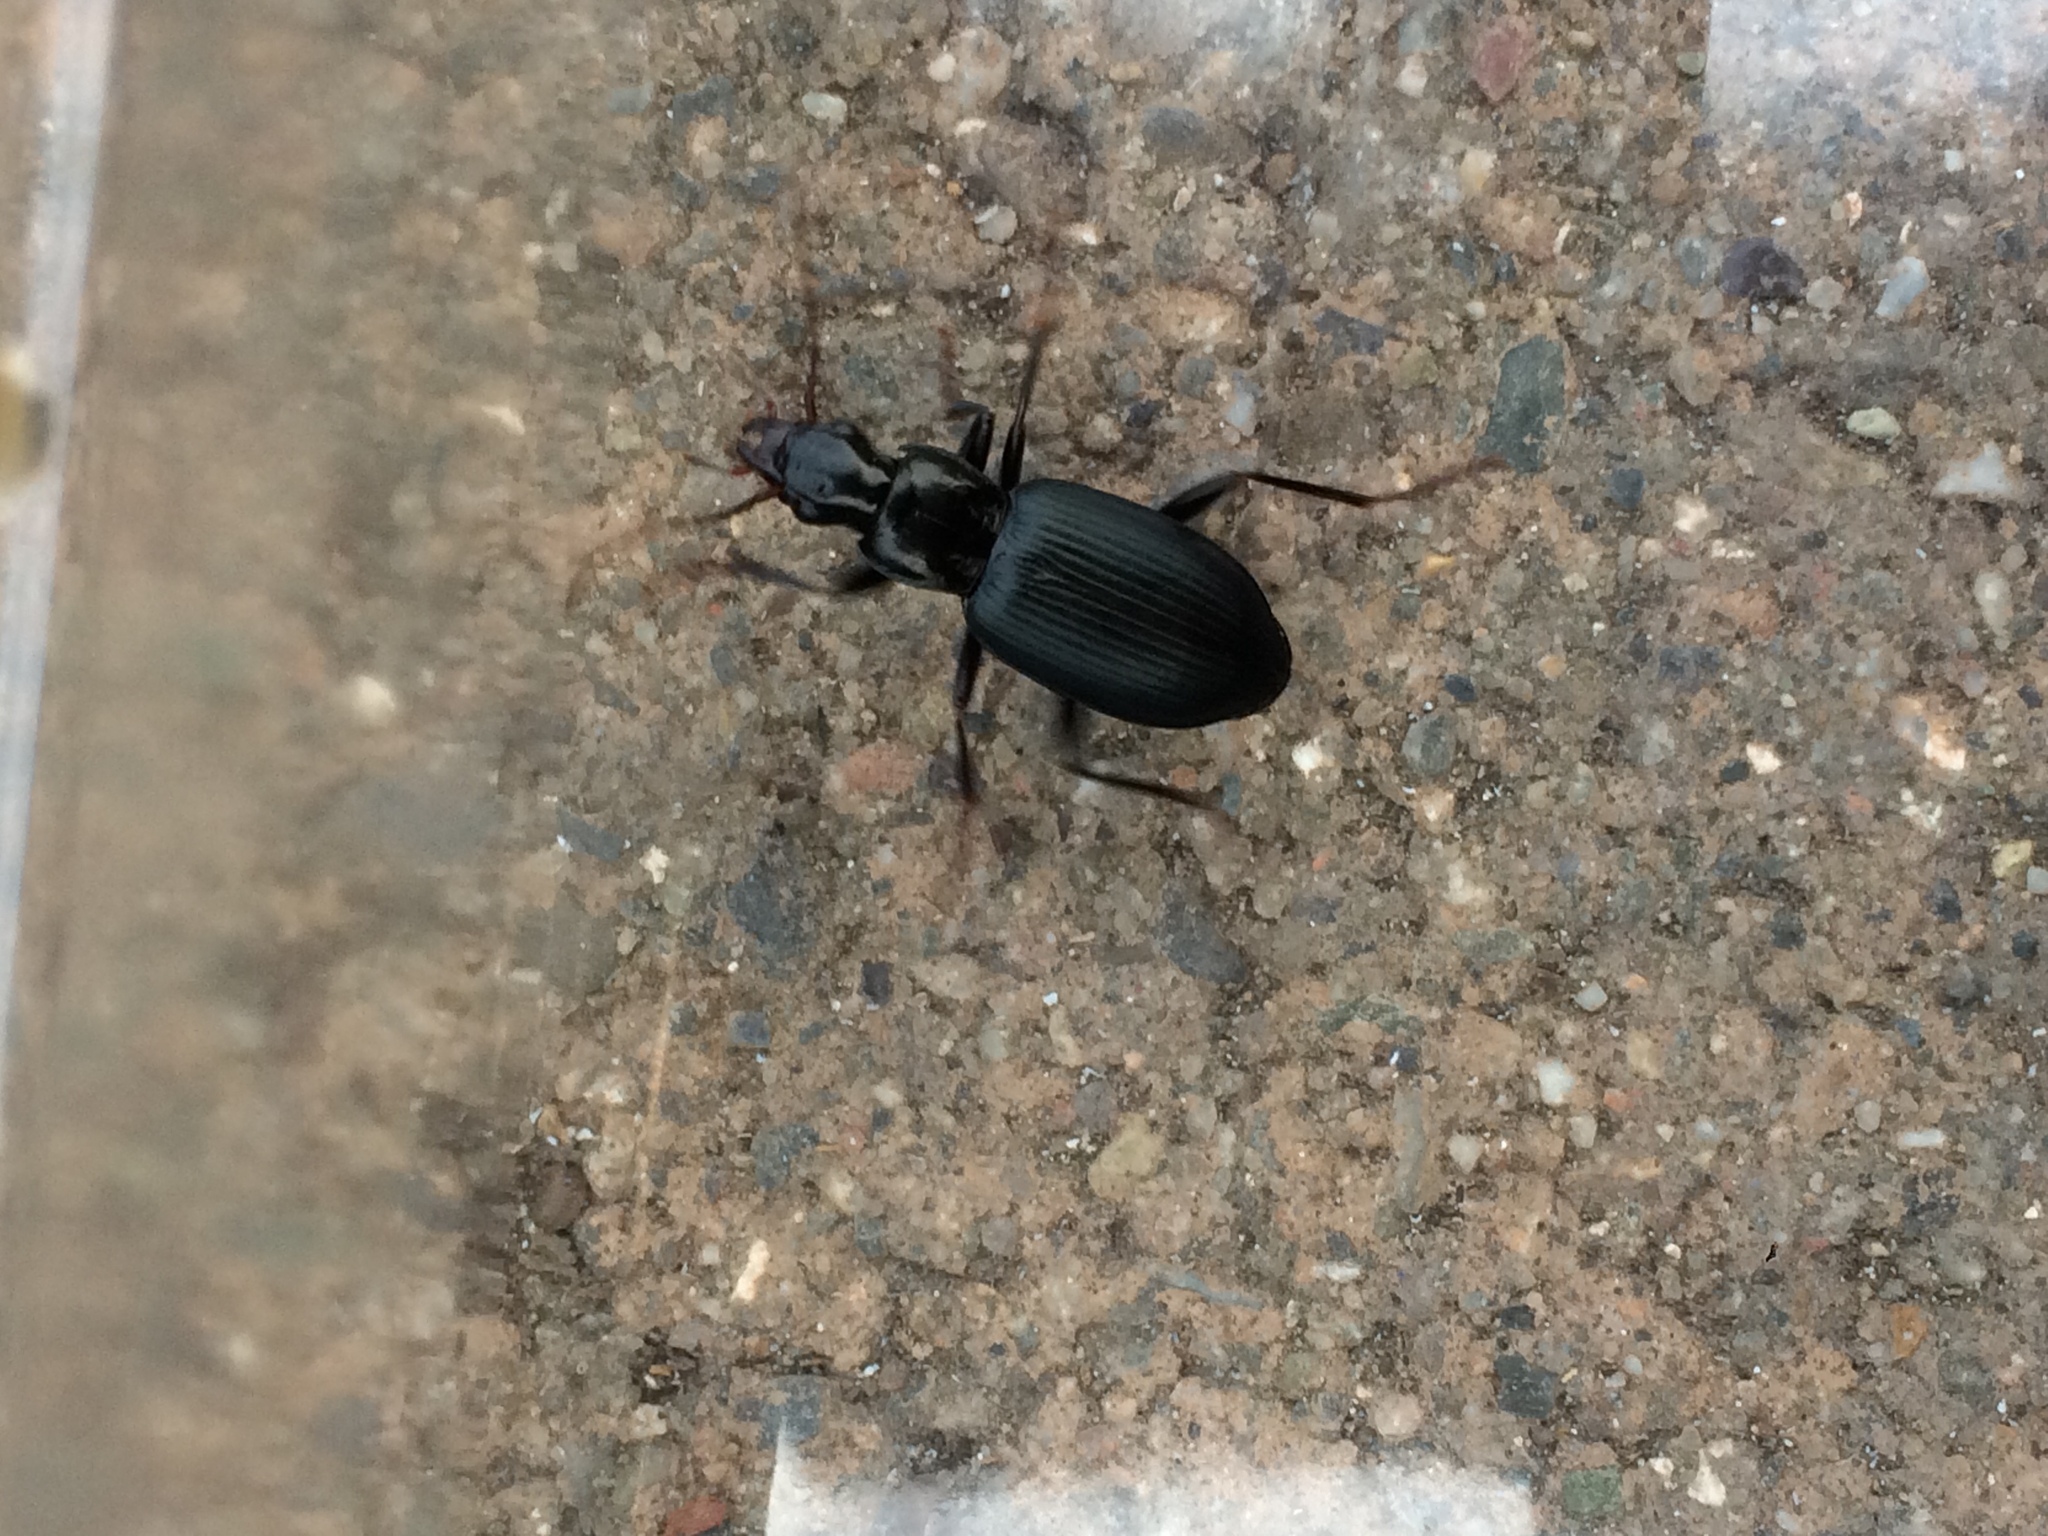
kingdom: Animalia
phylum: Arthropoda
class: Insecta
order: Coleoptera
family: Carabidae
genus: Laemostenus
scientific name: Laemostenus complanatus
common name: Cosmopolitan ground beetle
